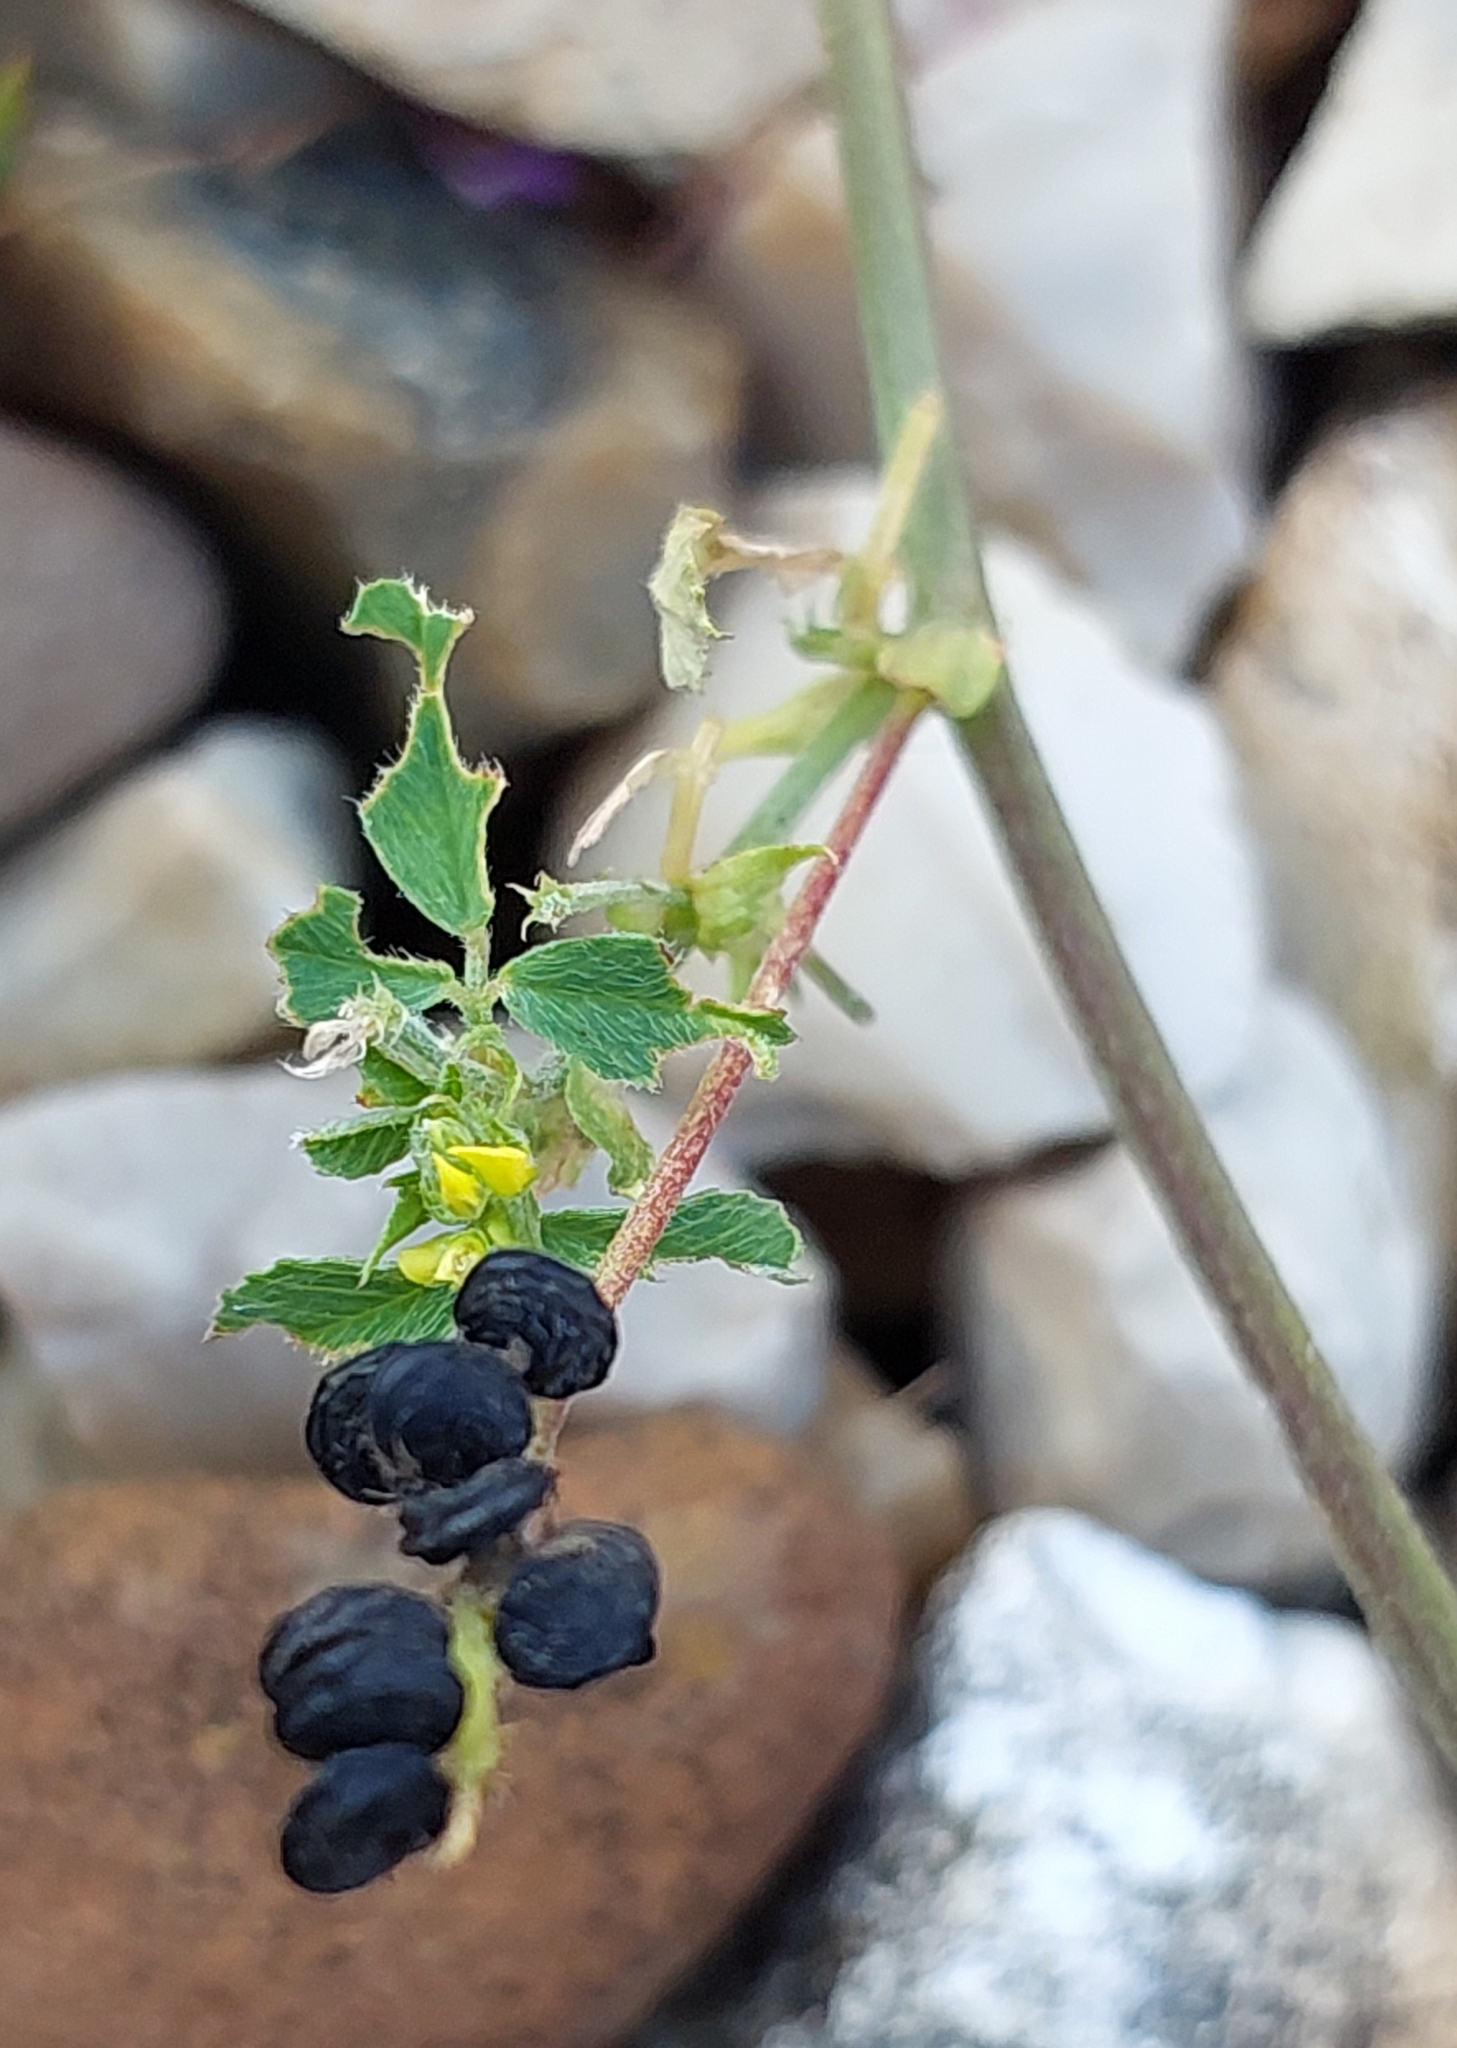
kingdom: Plantae
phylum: Tracheophyta
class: Magnoliopsida
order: Fabales
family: Fabaceae
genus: Medicago
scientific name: Medicago lupulina
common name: Black medick
